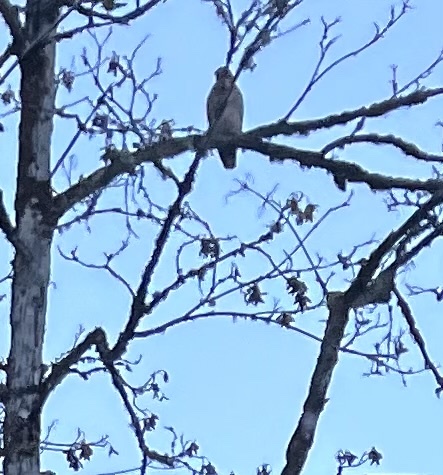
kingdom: Animalia
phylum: Chordata
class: Aves
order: Accipitriformes
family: Accipitridae
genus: Buteo
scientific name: Buteo jamaicensis
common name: Red-tailed hawk
